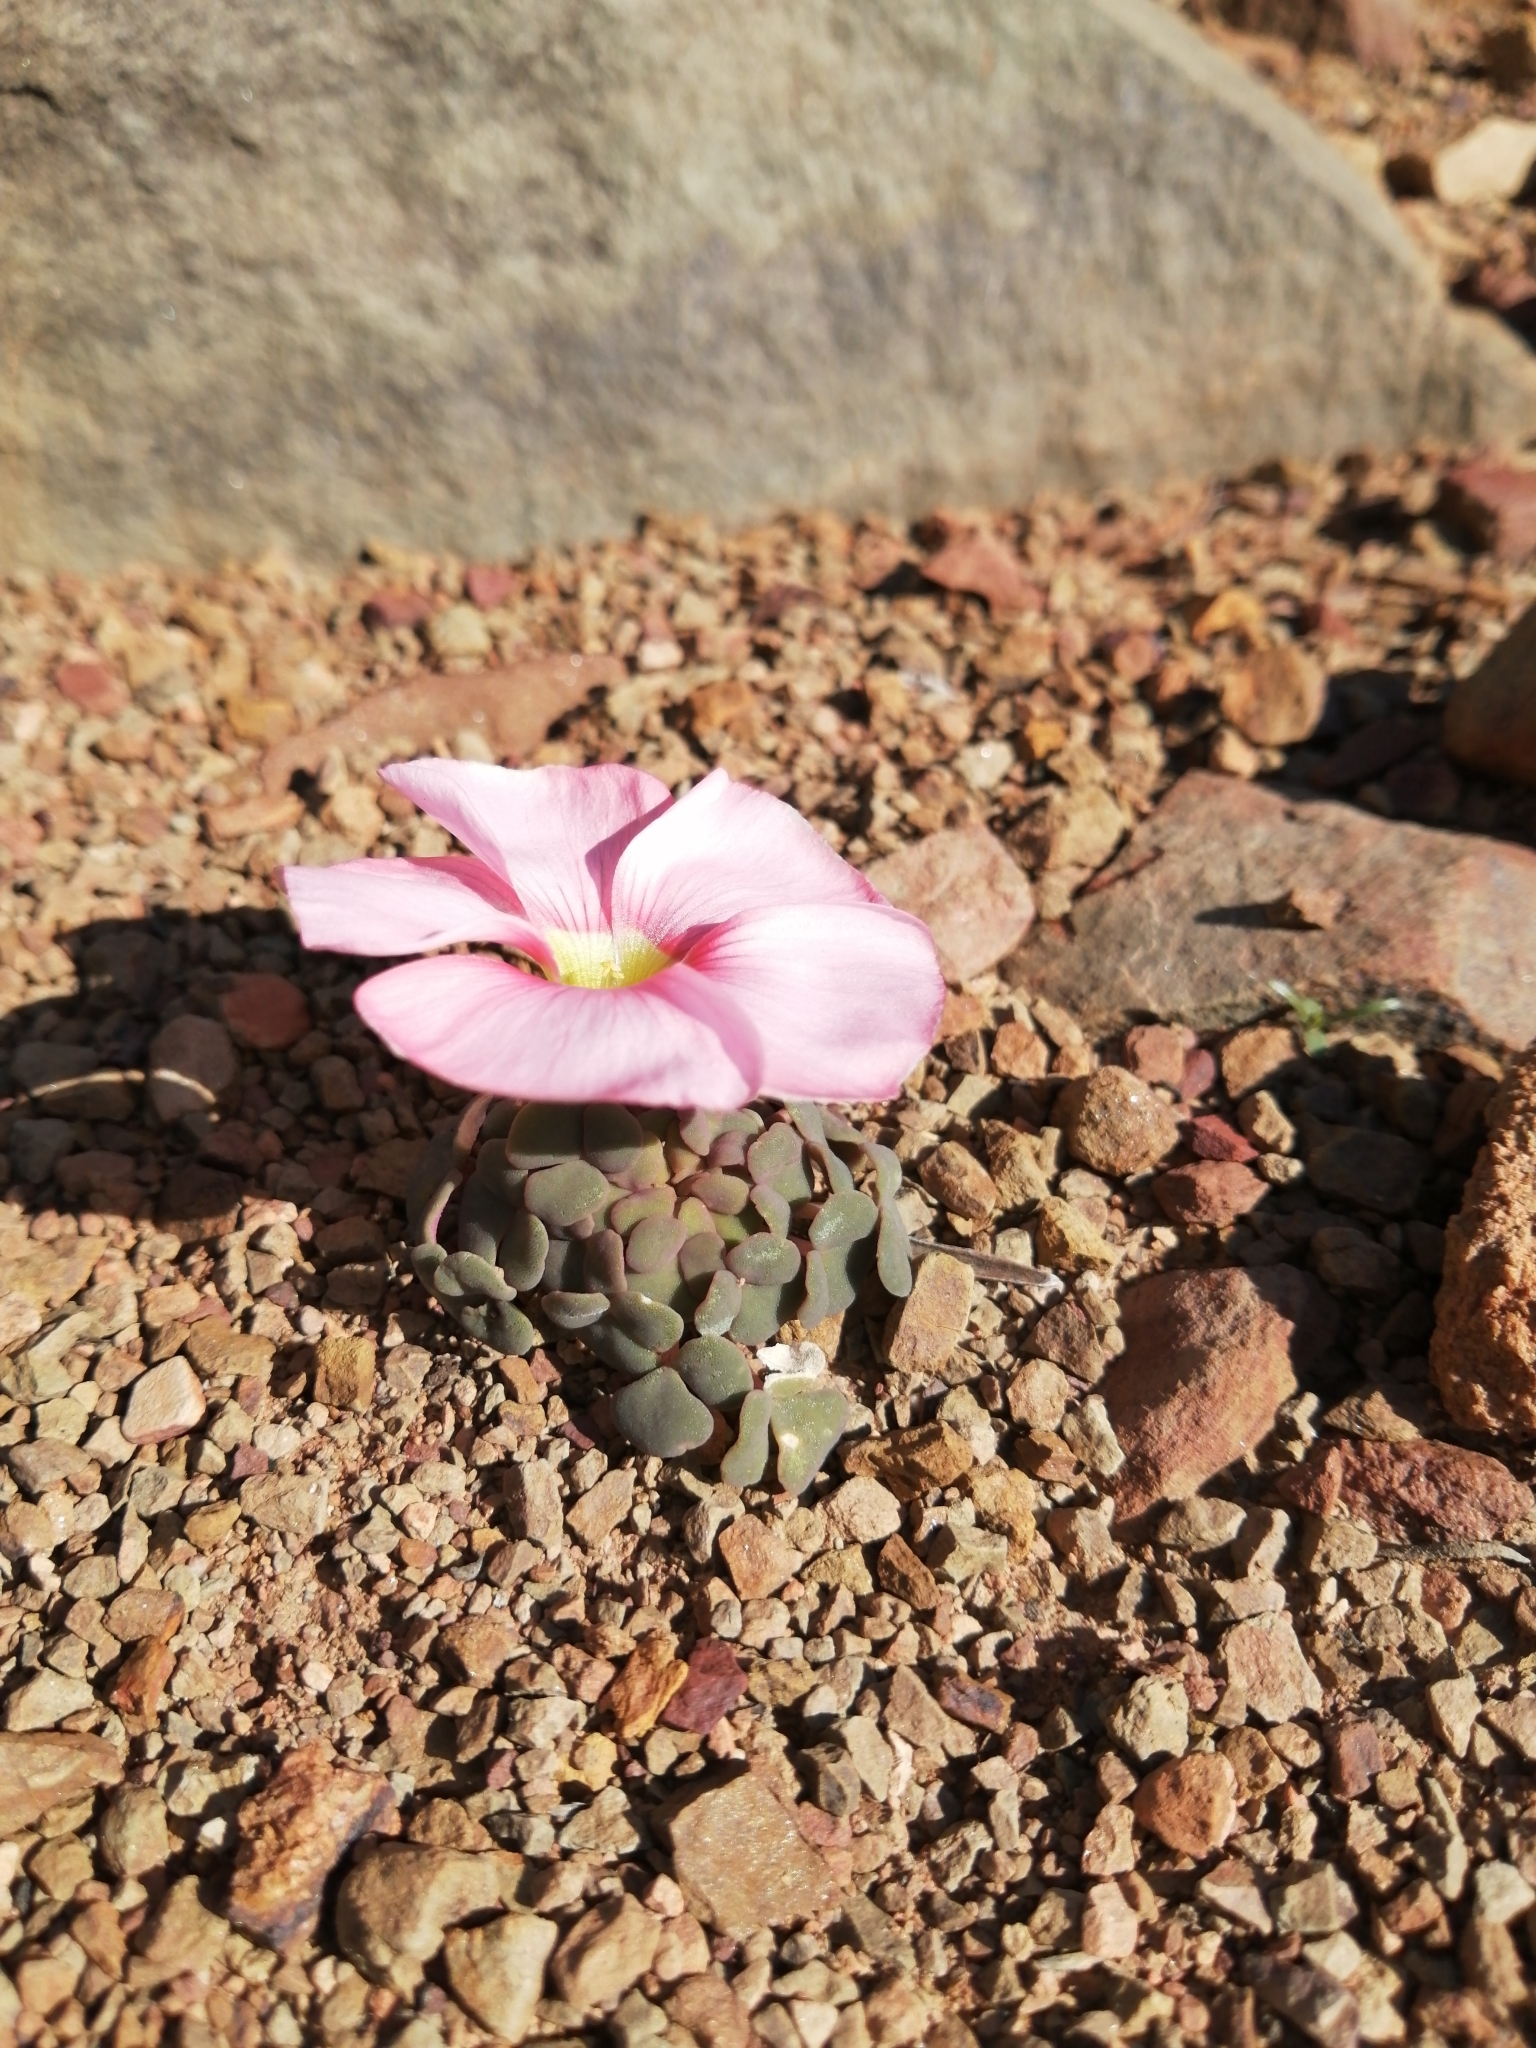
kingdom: Plantae
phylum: Tracheophyta
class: Magnoliopsida
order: Oxalidales
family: Oxalidaceae
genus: Oxalis
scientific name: Oxalis convexula
